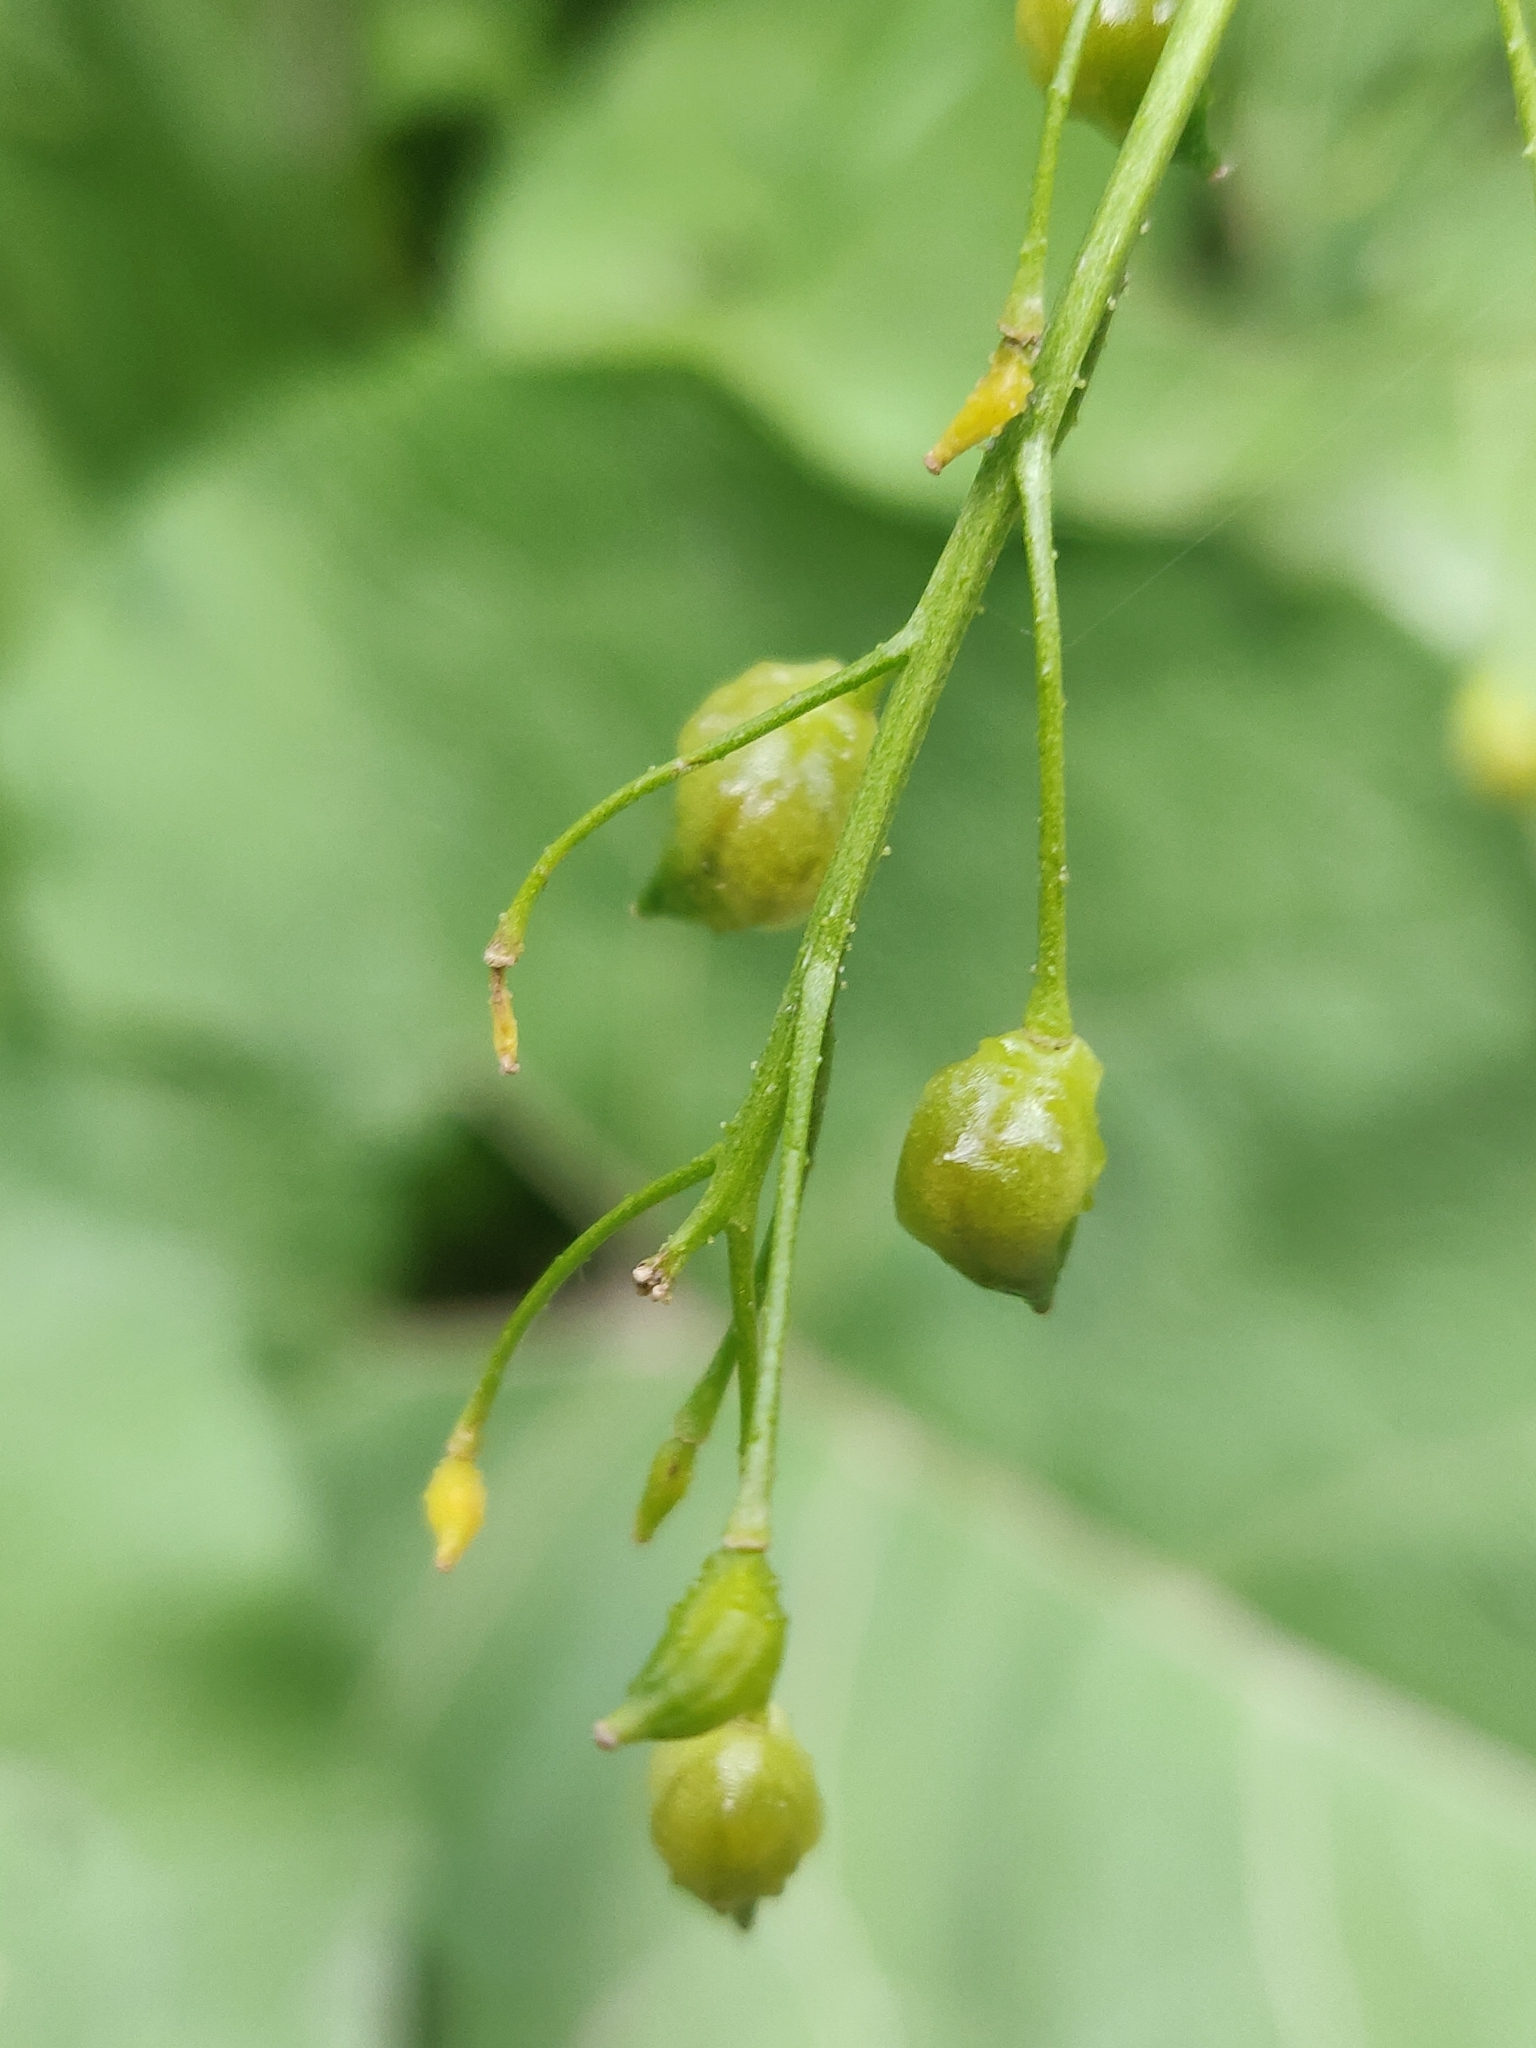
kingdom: Plantae
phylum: Tracheophyta
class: Magnoliopsida
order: Brassicales
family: Brassicaceae
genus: Bunias
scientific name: Bunias orientalis
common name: Warty-cabbage
